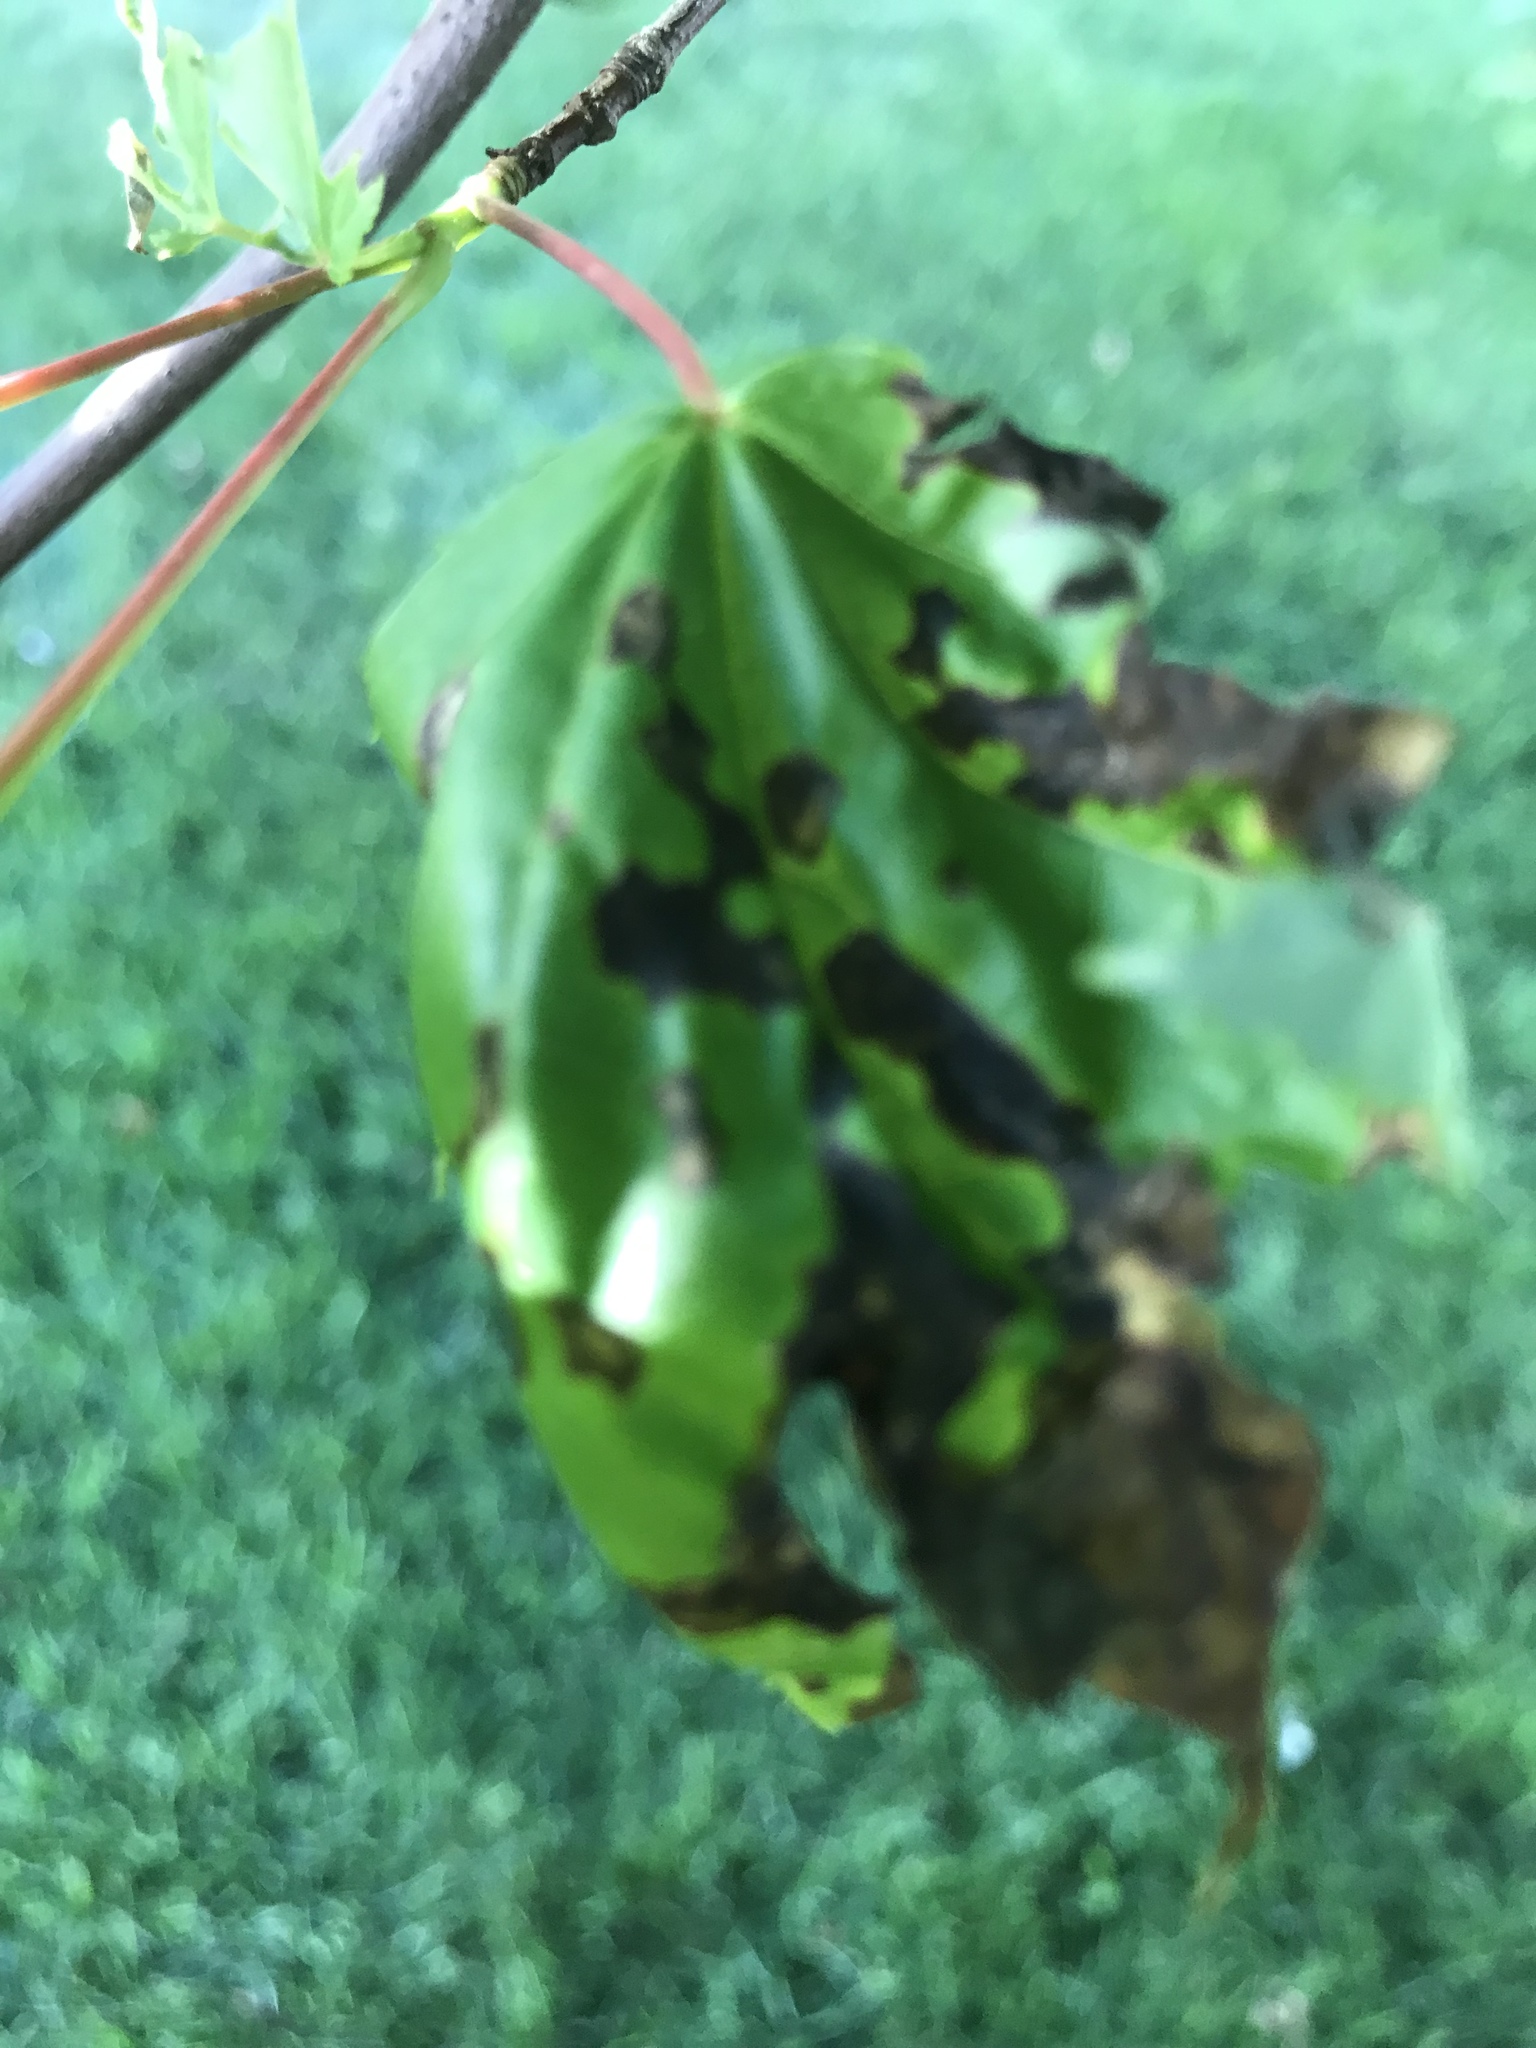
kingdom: Plantae
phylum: Tracheophyta
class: Magnoliopsida
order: Sapindales
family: Sapindaceae
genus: Acer
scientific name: Acer rubrum
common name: Red maple
